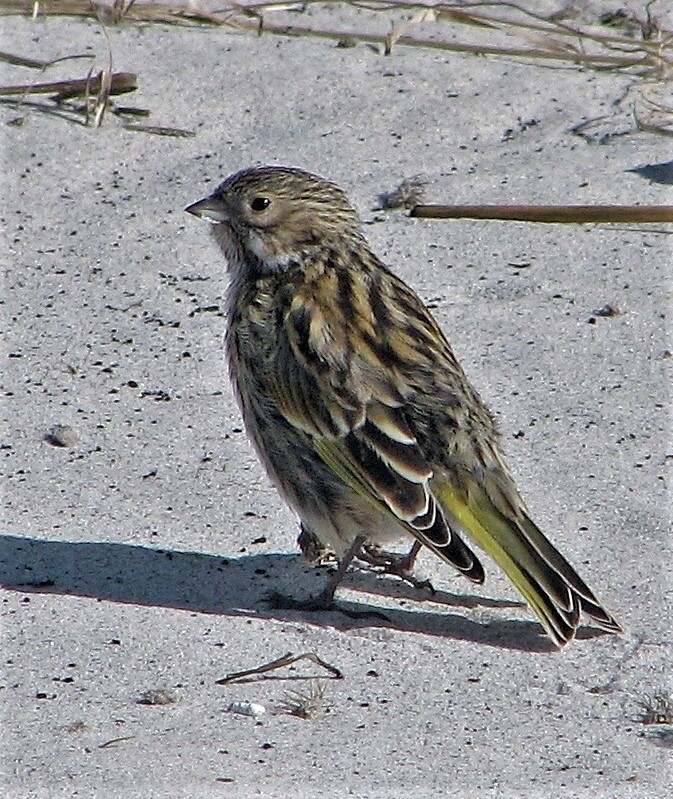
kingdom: Animalia
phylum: Chordata
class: Aves
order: Passeriformes
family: Thraupidae
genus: Melanodera
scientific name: Melanodera melanodera
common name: White-bridled finch
